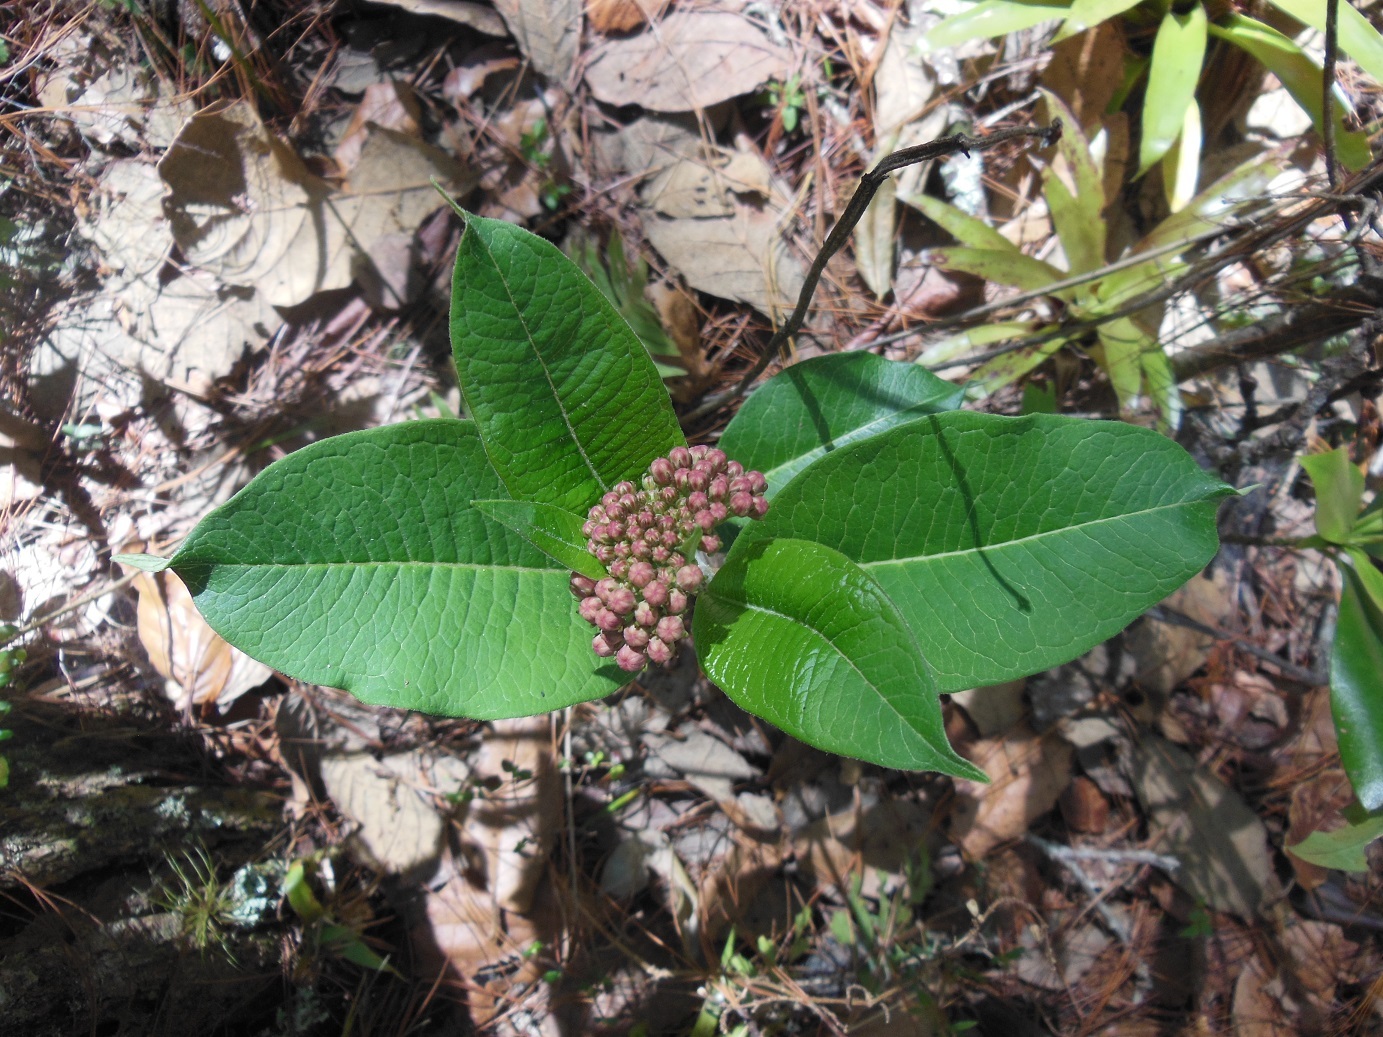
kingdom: Plantae
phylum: Tracheophyta
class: Magnoliopsida
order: Gentianales
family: Apocynaceae
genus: Asclepias
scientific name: Asclepias similis
